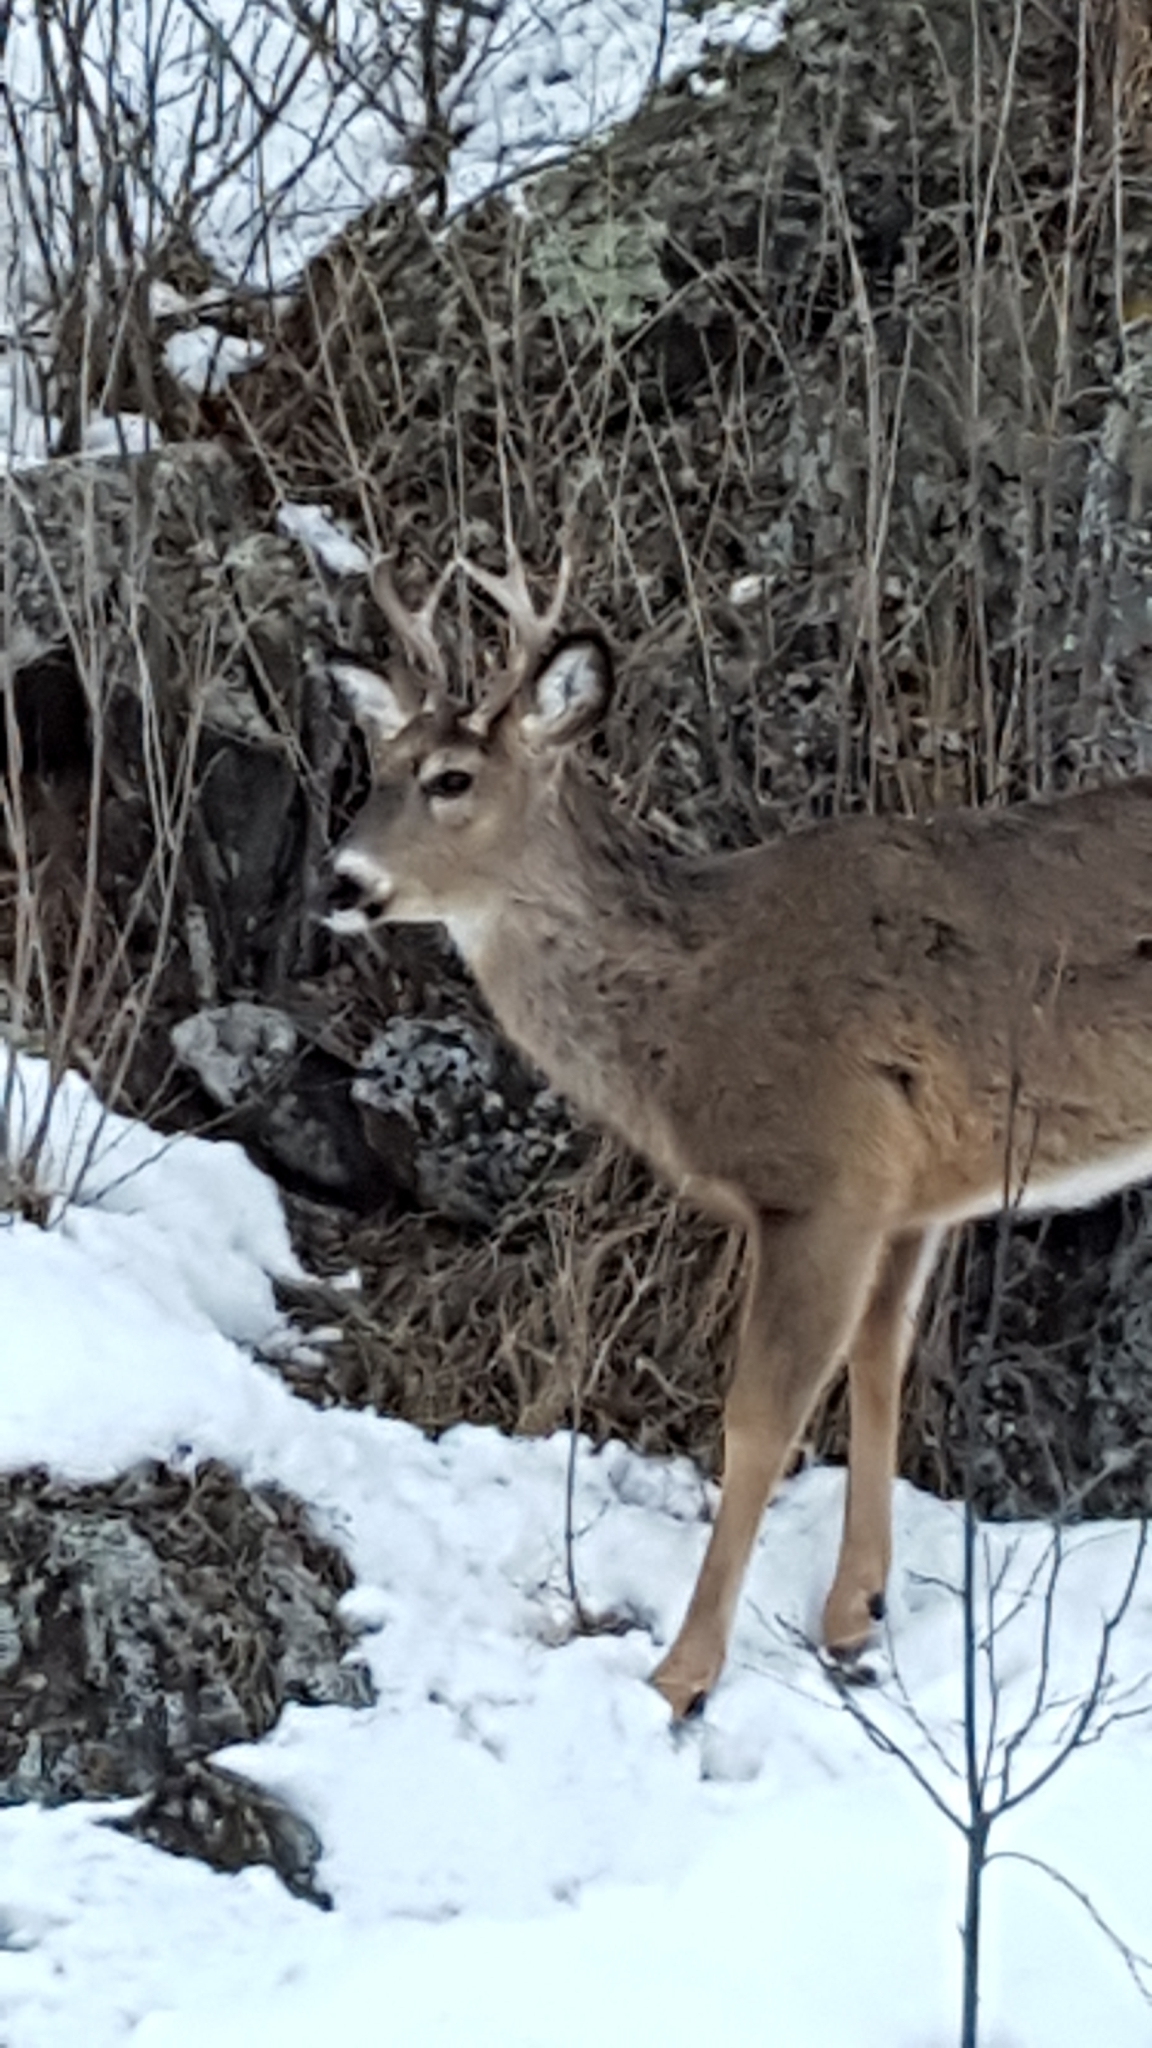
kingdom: Animalia
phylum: Chordata
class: Mammalia
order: Artiodactyla
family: Cervidae
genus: Odocoileus
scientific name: Odocoileus virginianus
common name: White-tailed deer
